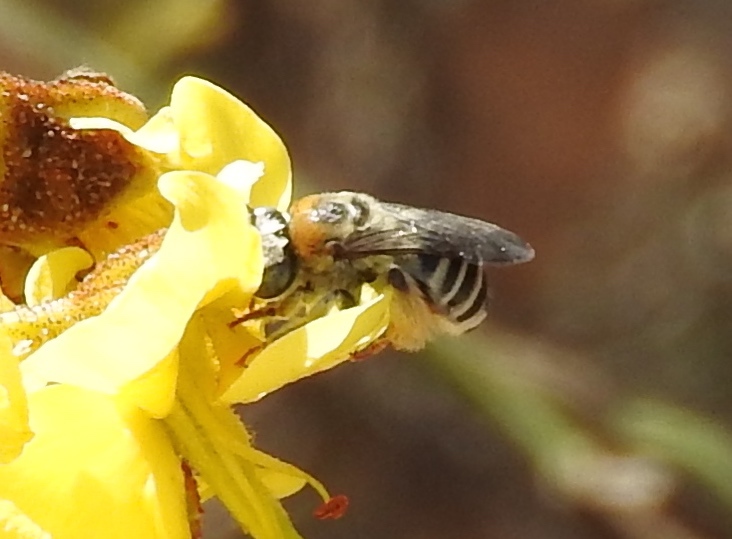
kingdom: Animalia
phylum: Arthropoda
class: Insecta
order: Hymenoptera
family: Apidae
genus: Apidae
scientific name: Apidae
